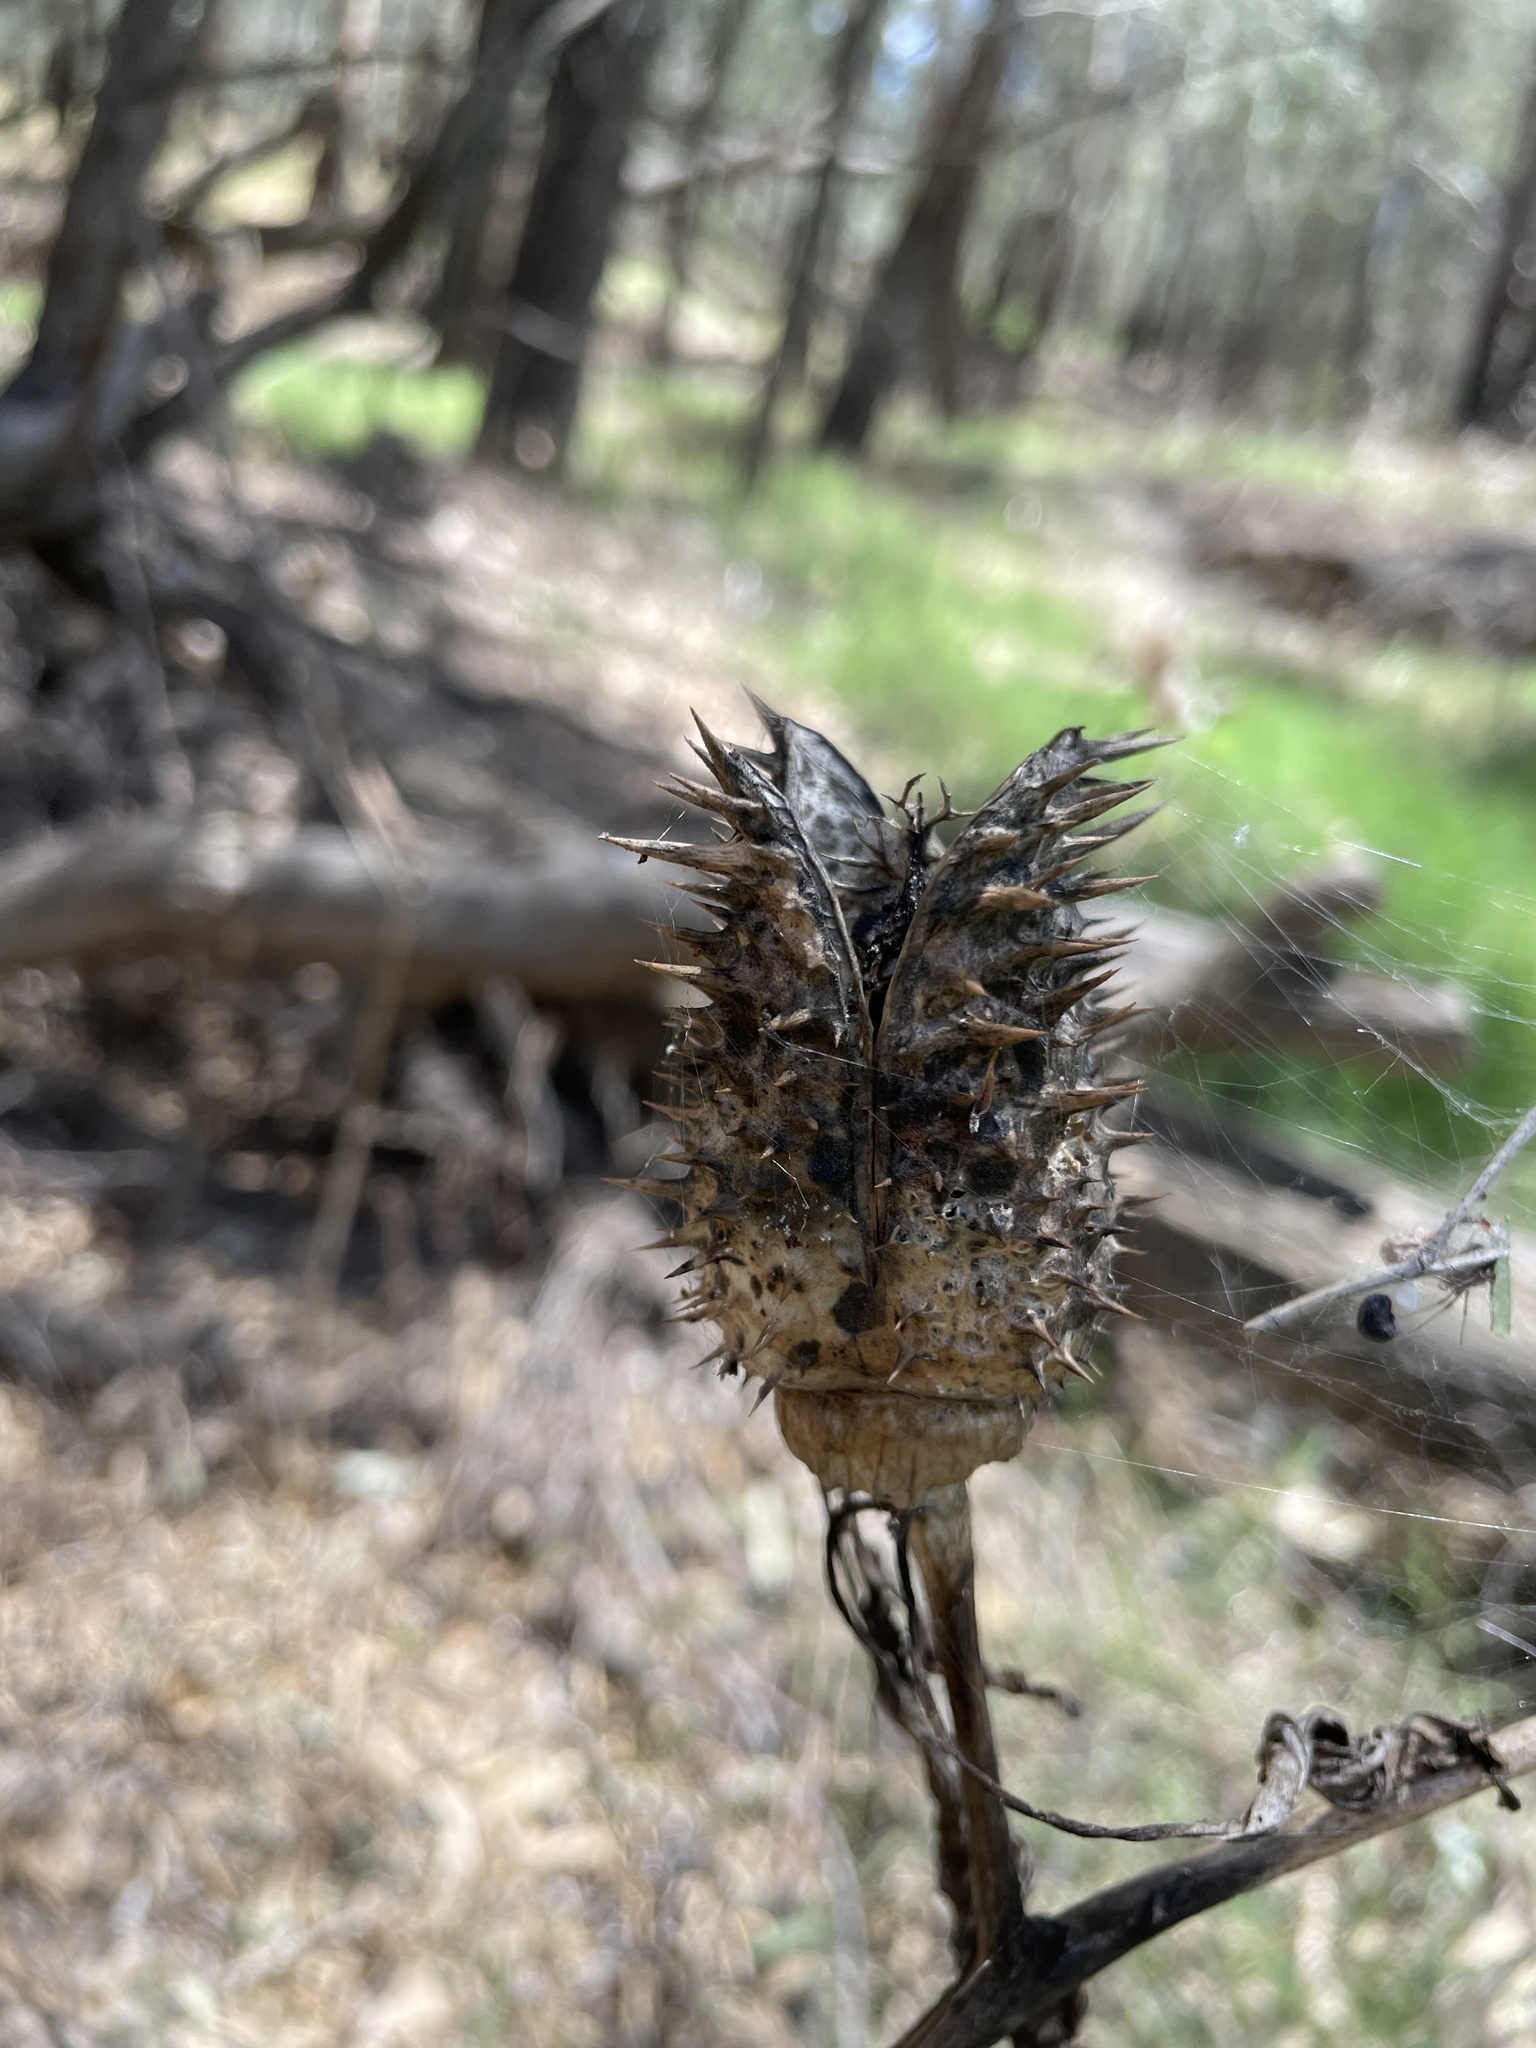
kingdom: Plantae
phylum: Tracheophyta
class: Magnoliopsida
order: Solanales
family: Solanaceae
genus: Datura
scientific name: Datura stramonium
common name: Thorn-apple
